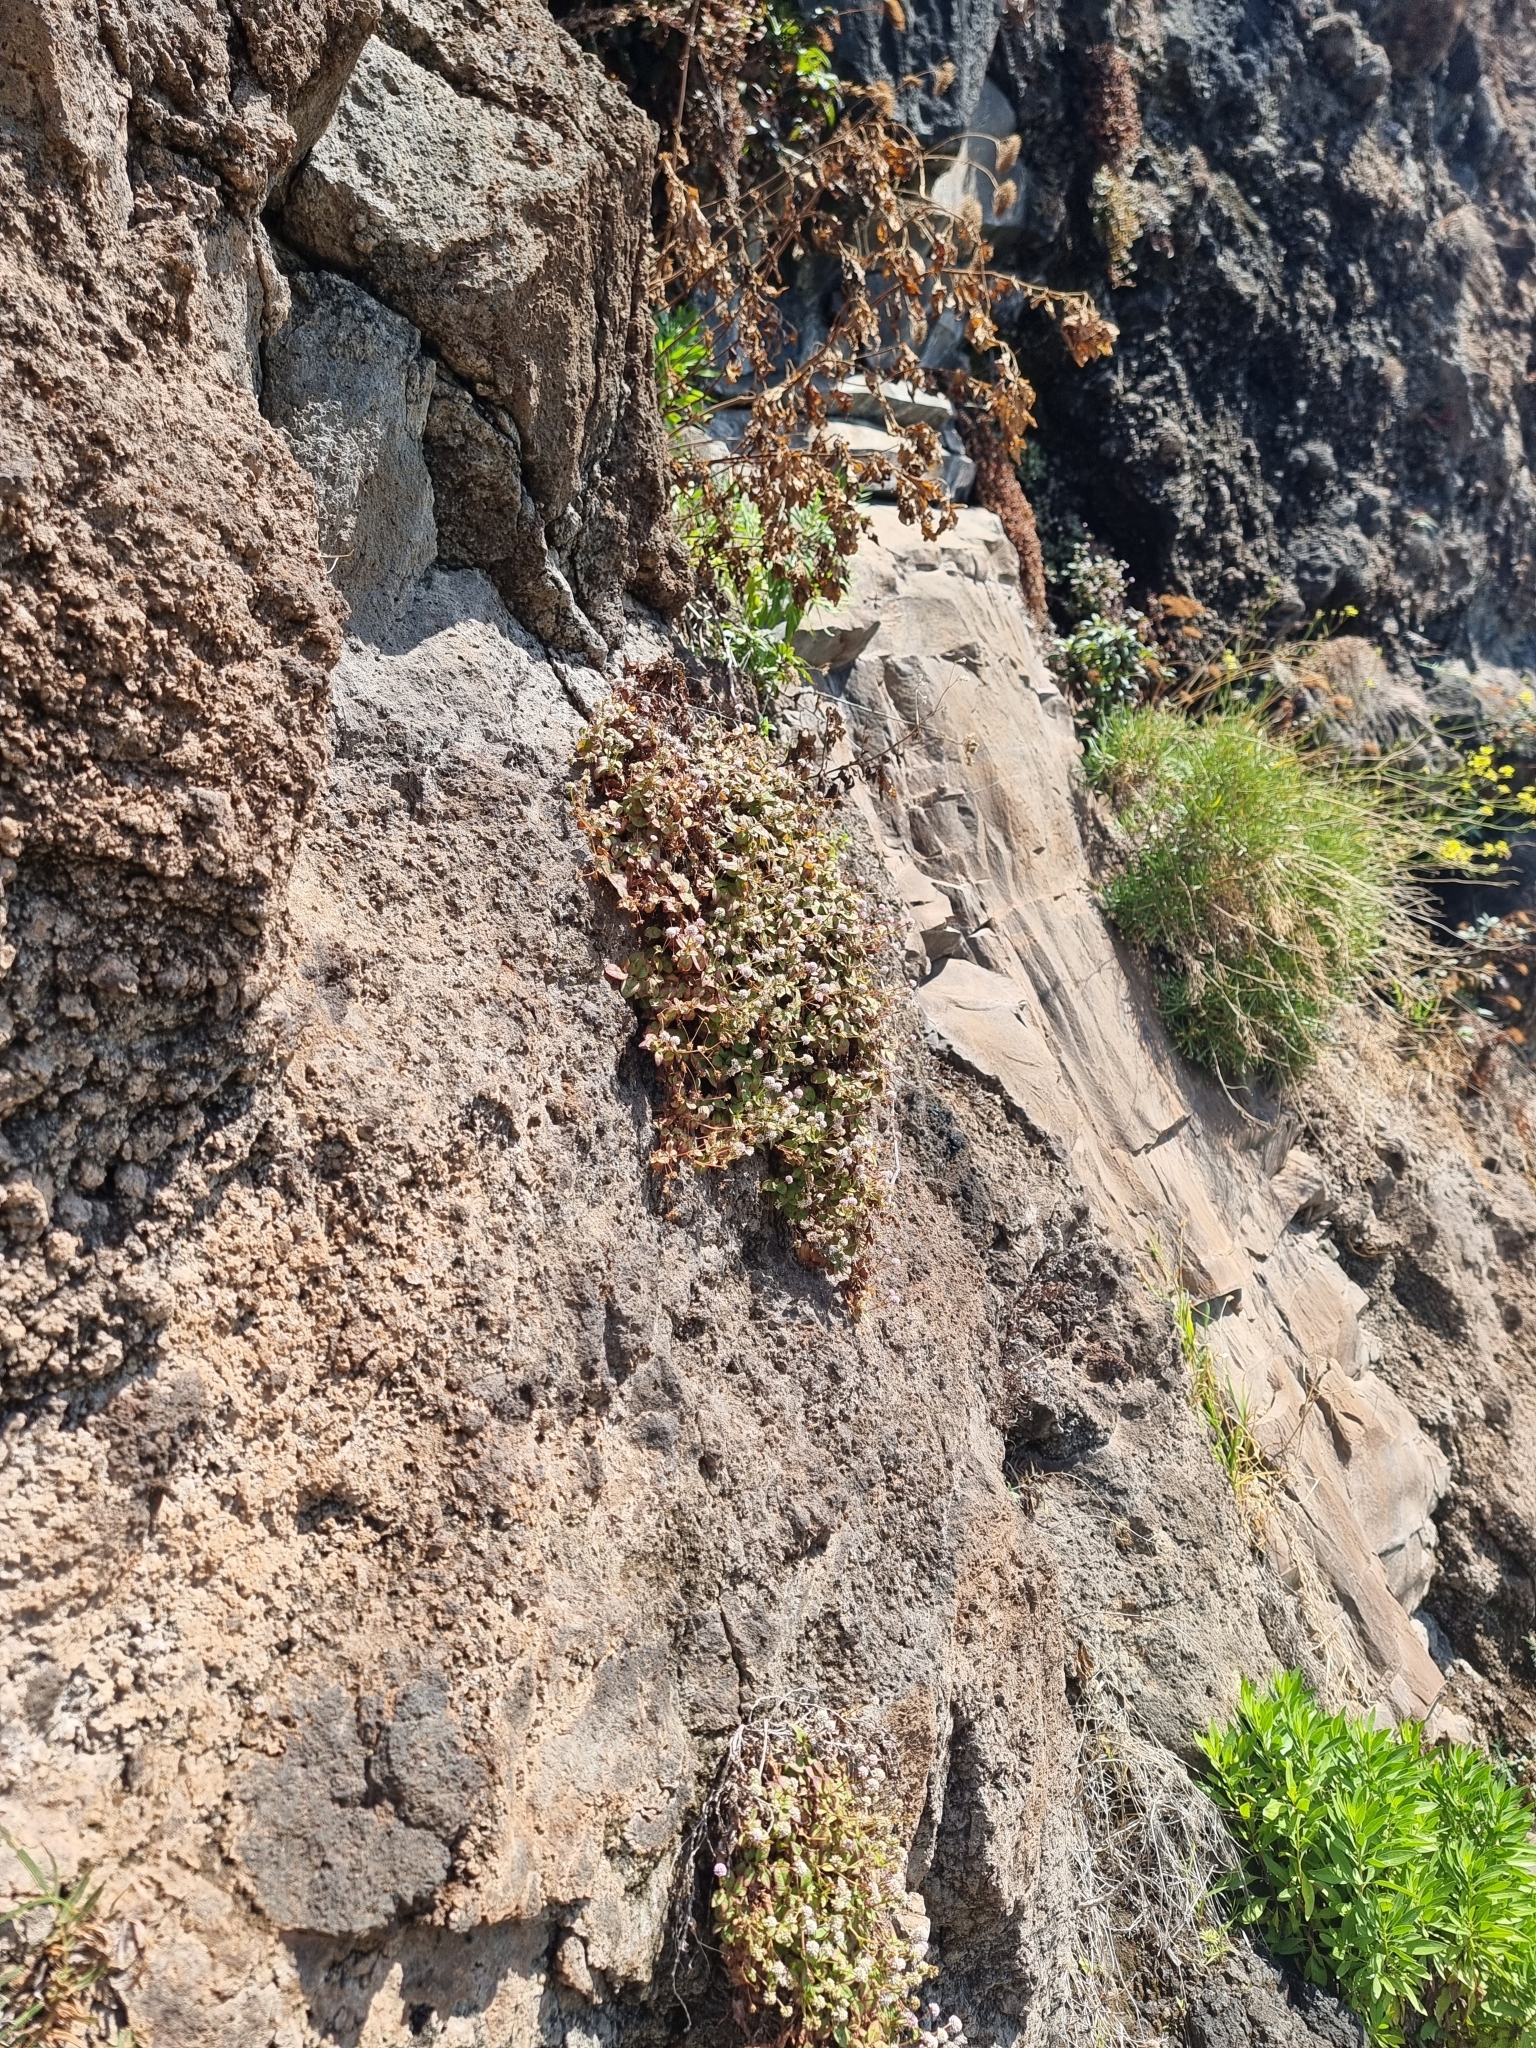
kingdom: Plantae
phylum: Tracheophyta
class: Magnoliopsida
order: Caryophyllales
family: Polygonaceae
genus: Persicaria
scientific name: Persicaria capitata
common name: Pinkhead smartweed
